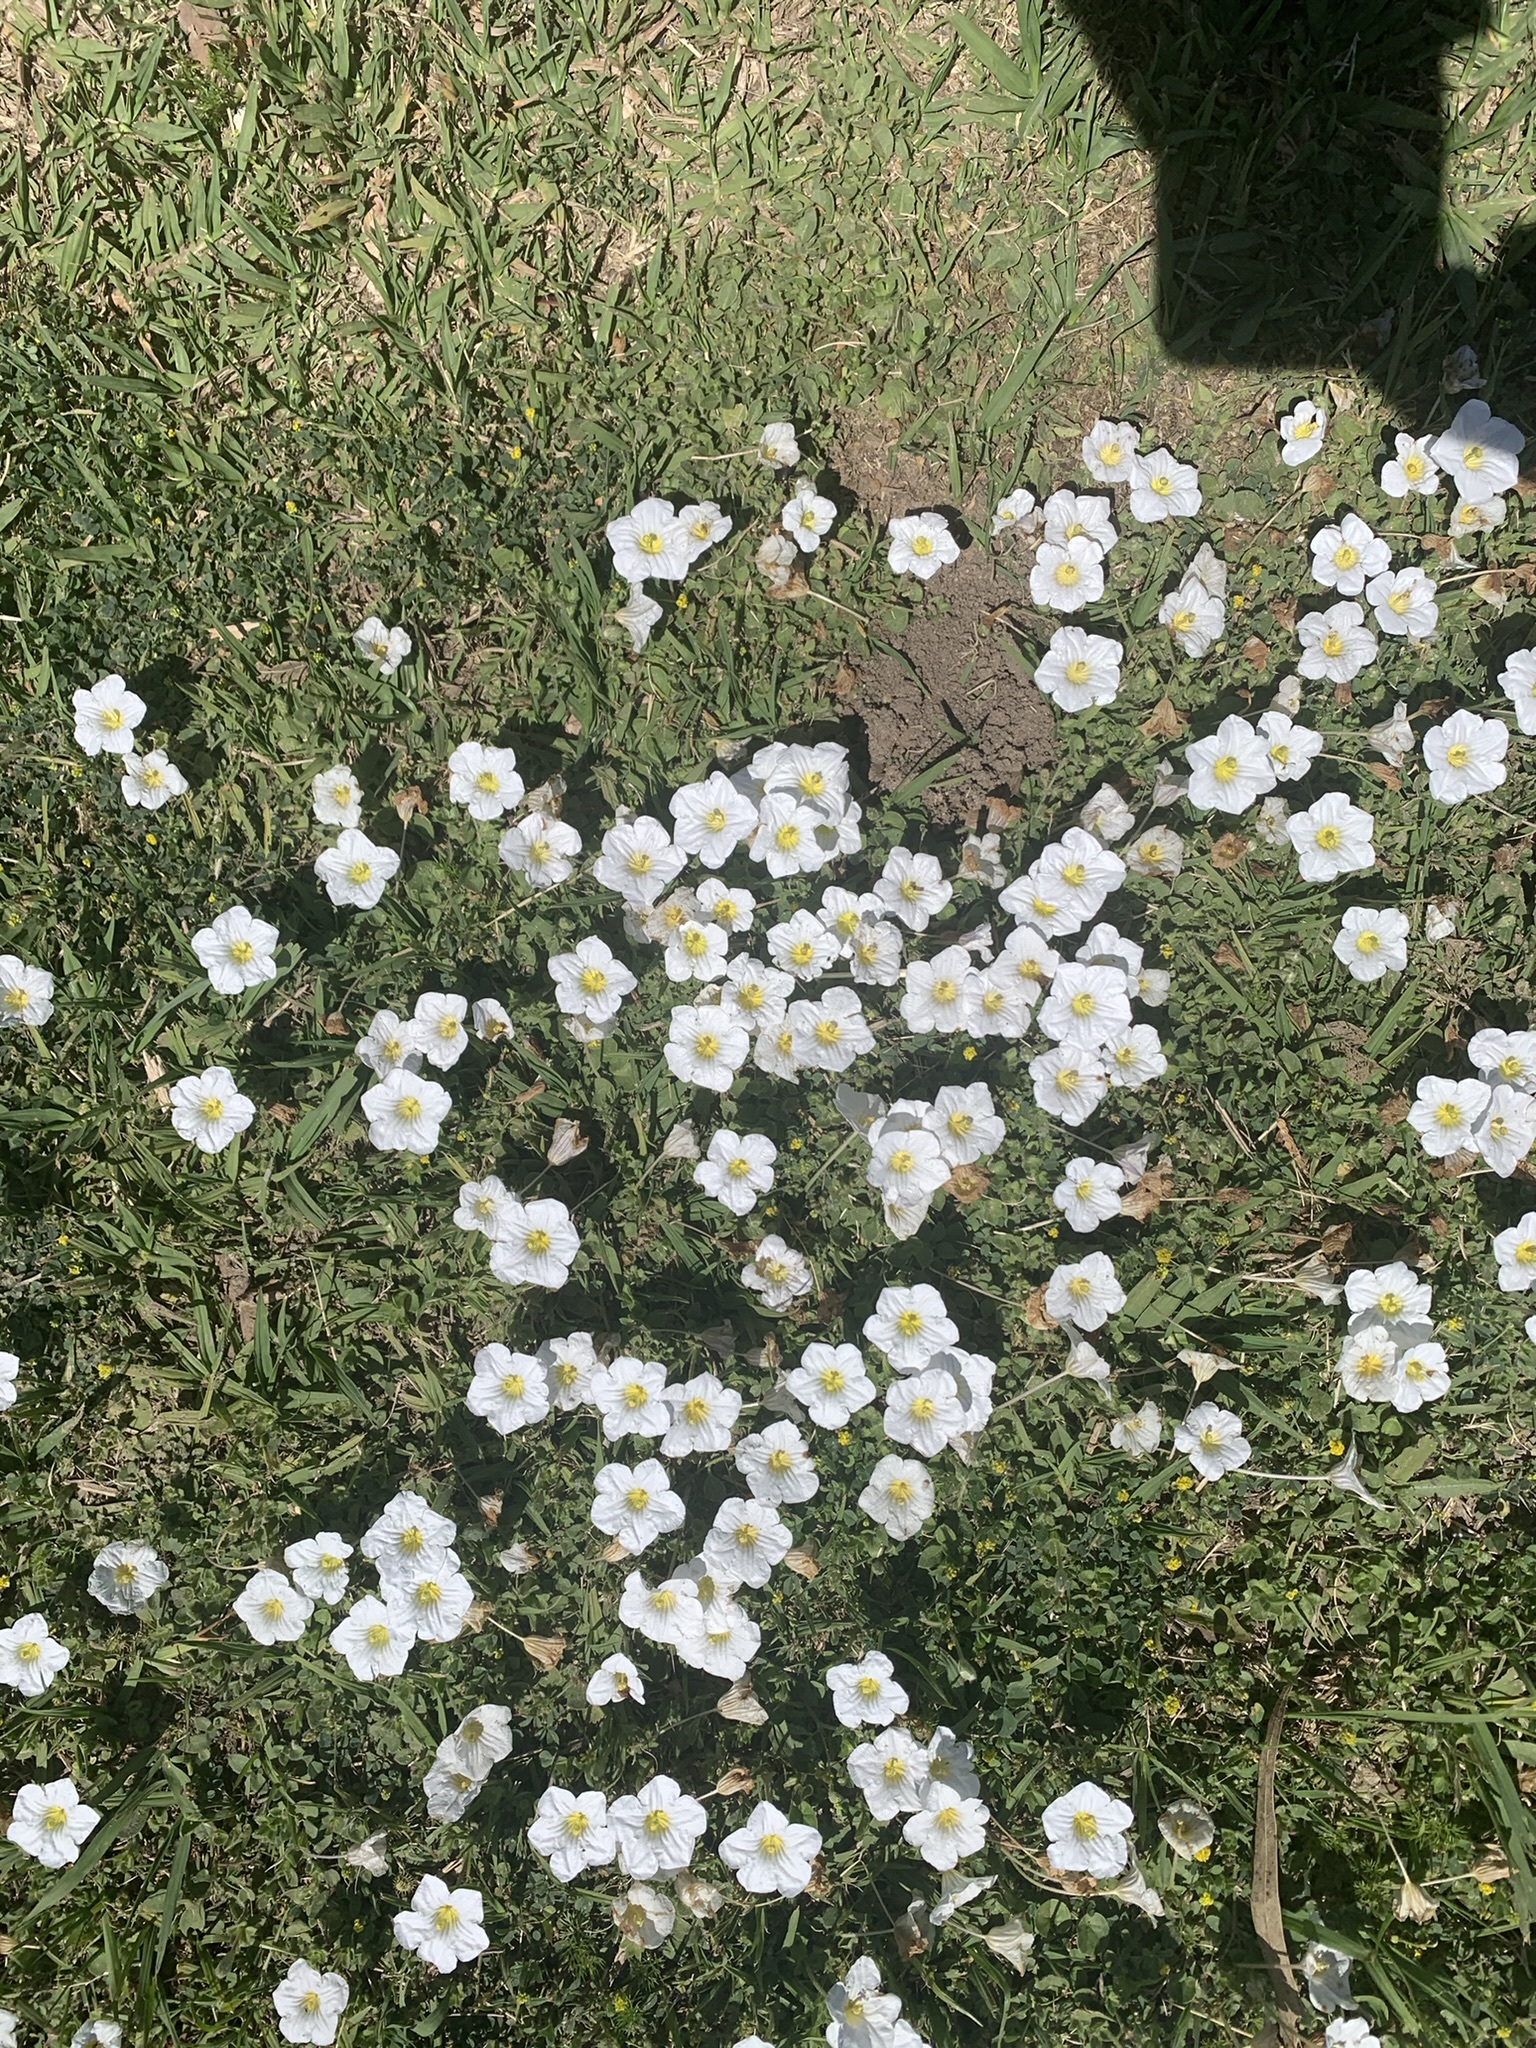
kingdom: Plantae
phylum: Tracheophyta
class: Magnoliopsida
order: Lamiales
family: Verbenaceae
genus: Phyla
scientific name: Phyla nodiflora
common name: Frogfruit
